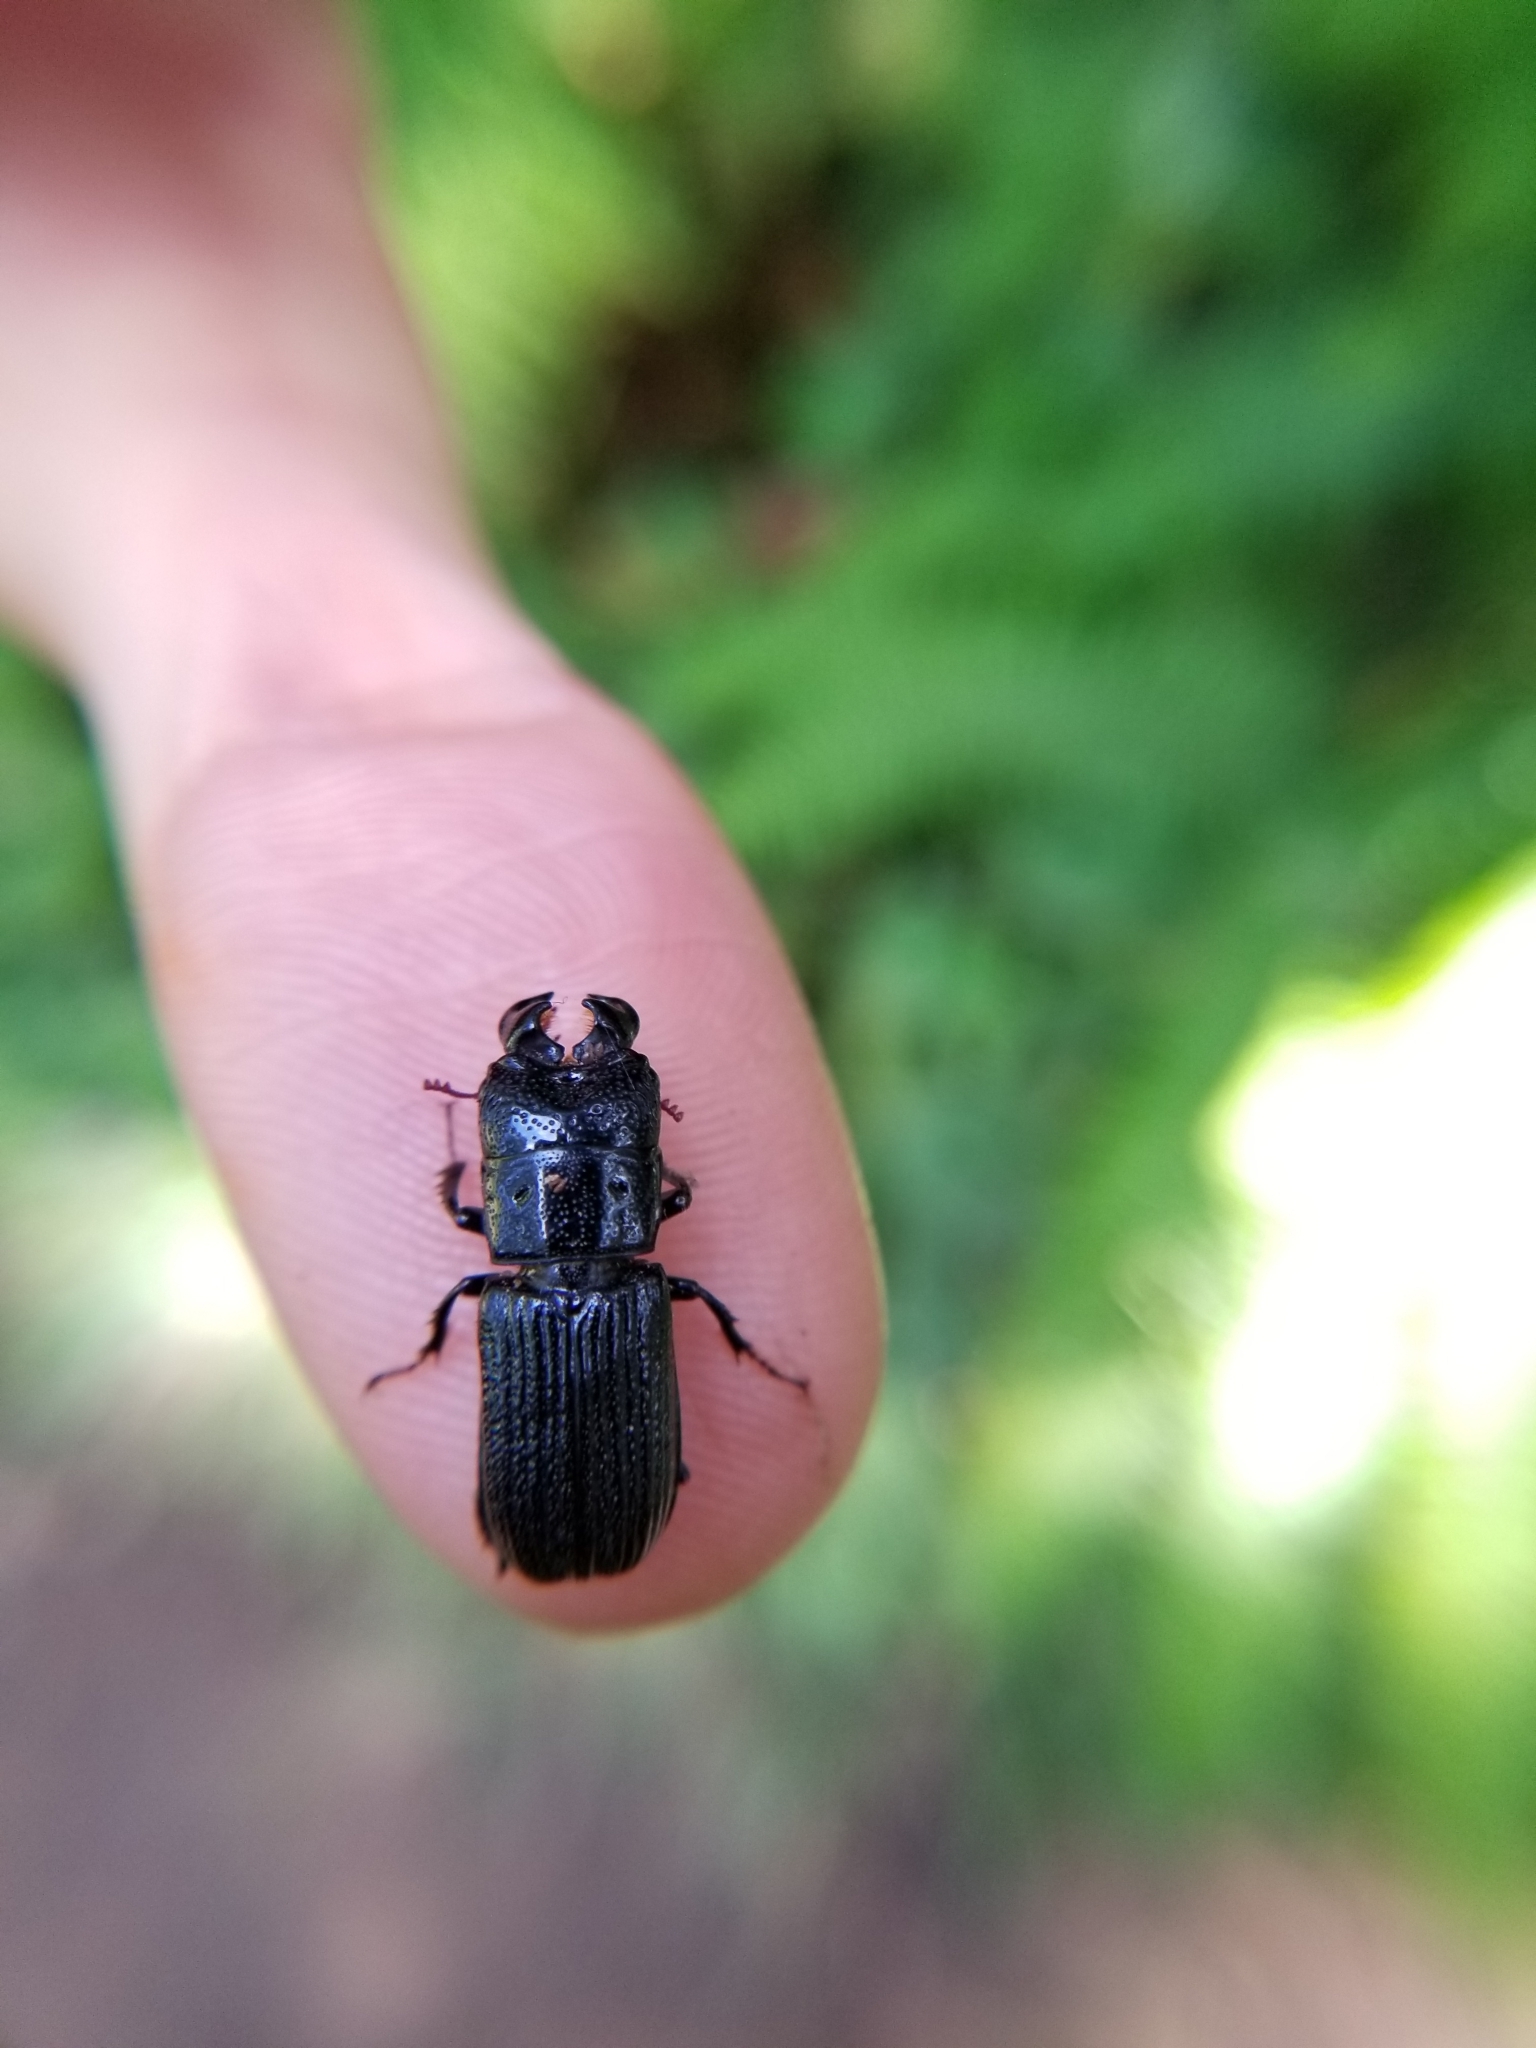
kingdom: Animalia
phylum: Arthropoda
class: Insecta
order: Coleoptera
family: Lucanidae
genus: Ceruchus
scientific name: Ceruchus striatus
